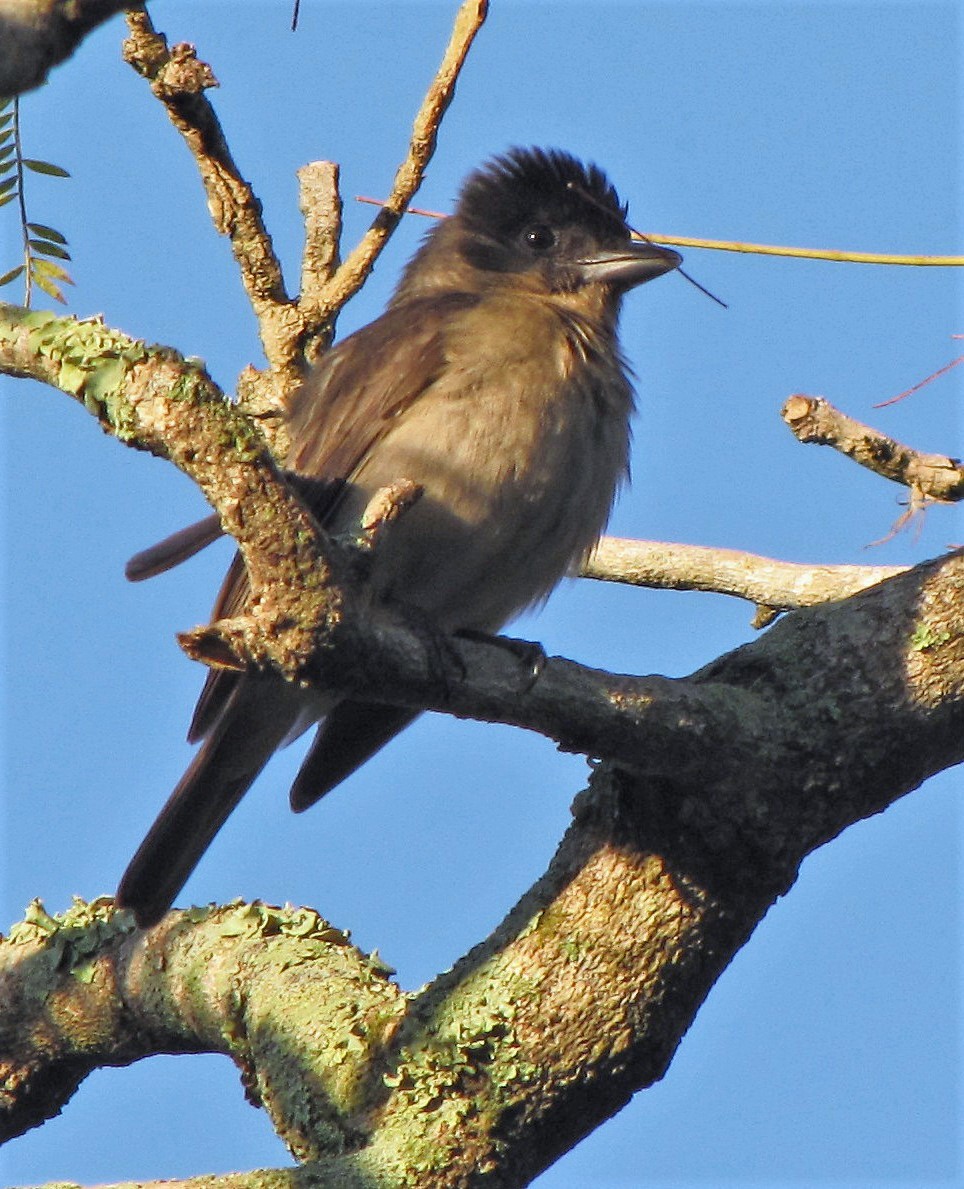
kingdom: Animalia
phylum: Chordata
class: Aves
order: Passeriformes
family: Cotingidae
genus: Pachyramphus
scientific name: Pachyramphus validus
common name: Crested becard
